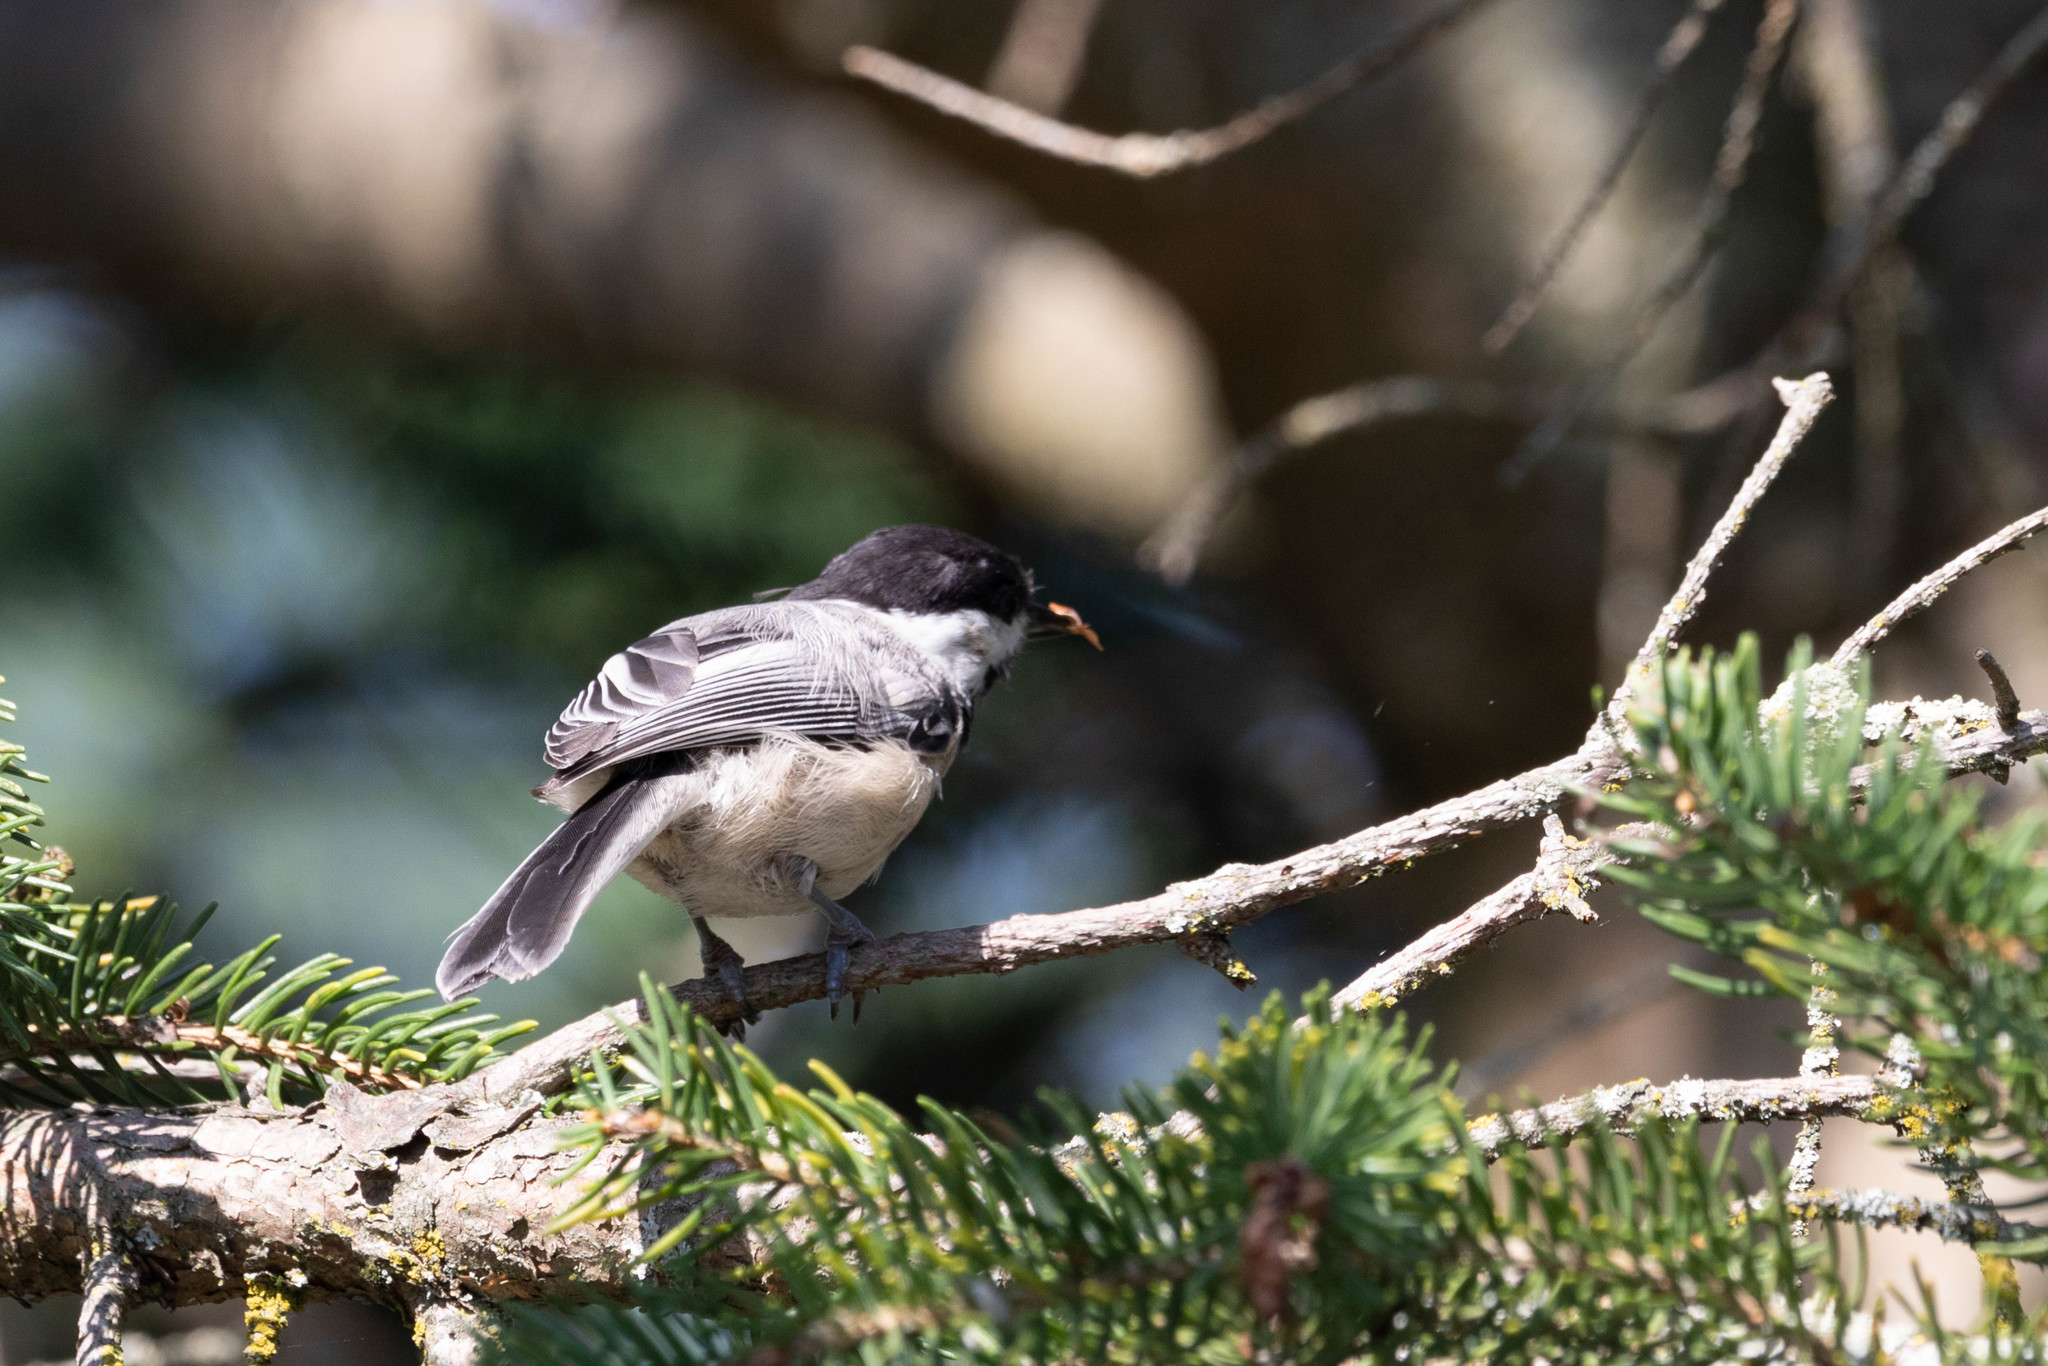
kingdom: Animalia
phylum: Chordata
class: Aves
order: Passeriformes
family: Paridae
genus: Poecile
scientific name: Poecile atricapillus
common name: Black-capped chickadee
